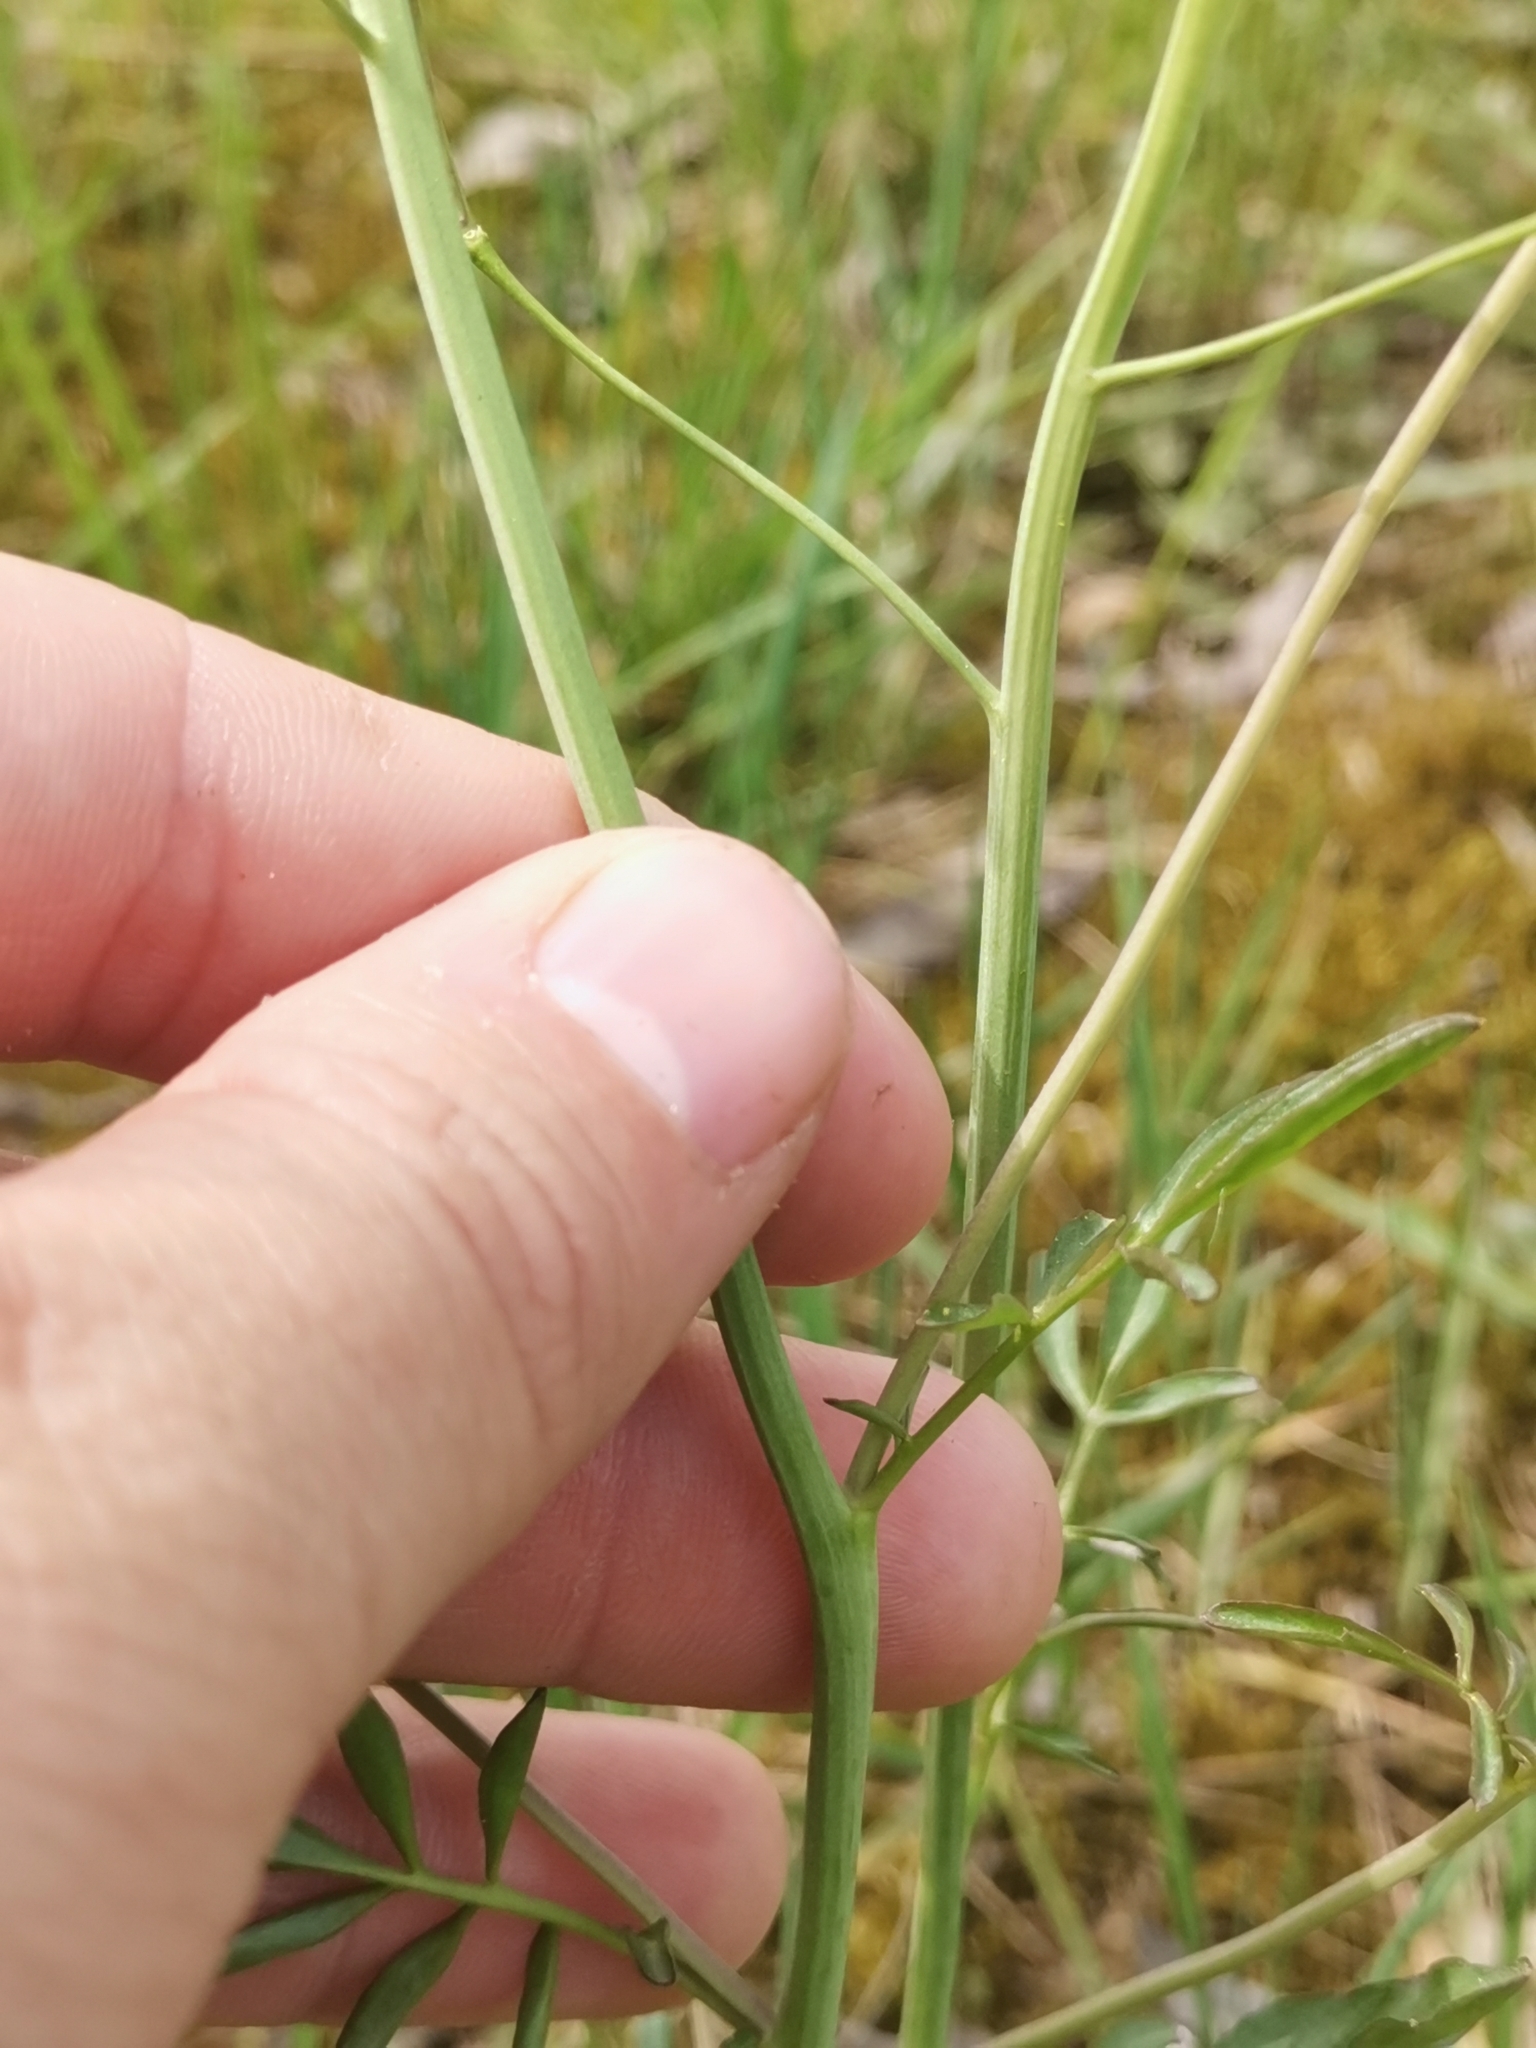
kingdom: Plantae
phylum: Tracheophyta
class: Magnoliopsida
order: Brassicales
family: Brassicaceae
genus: Cardamine
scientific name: Cardamine pratensis
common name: Cuckoo flower
